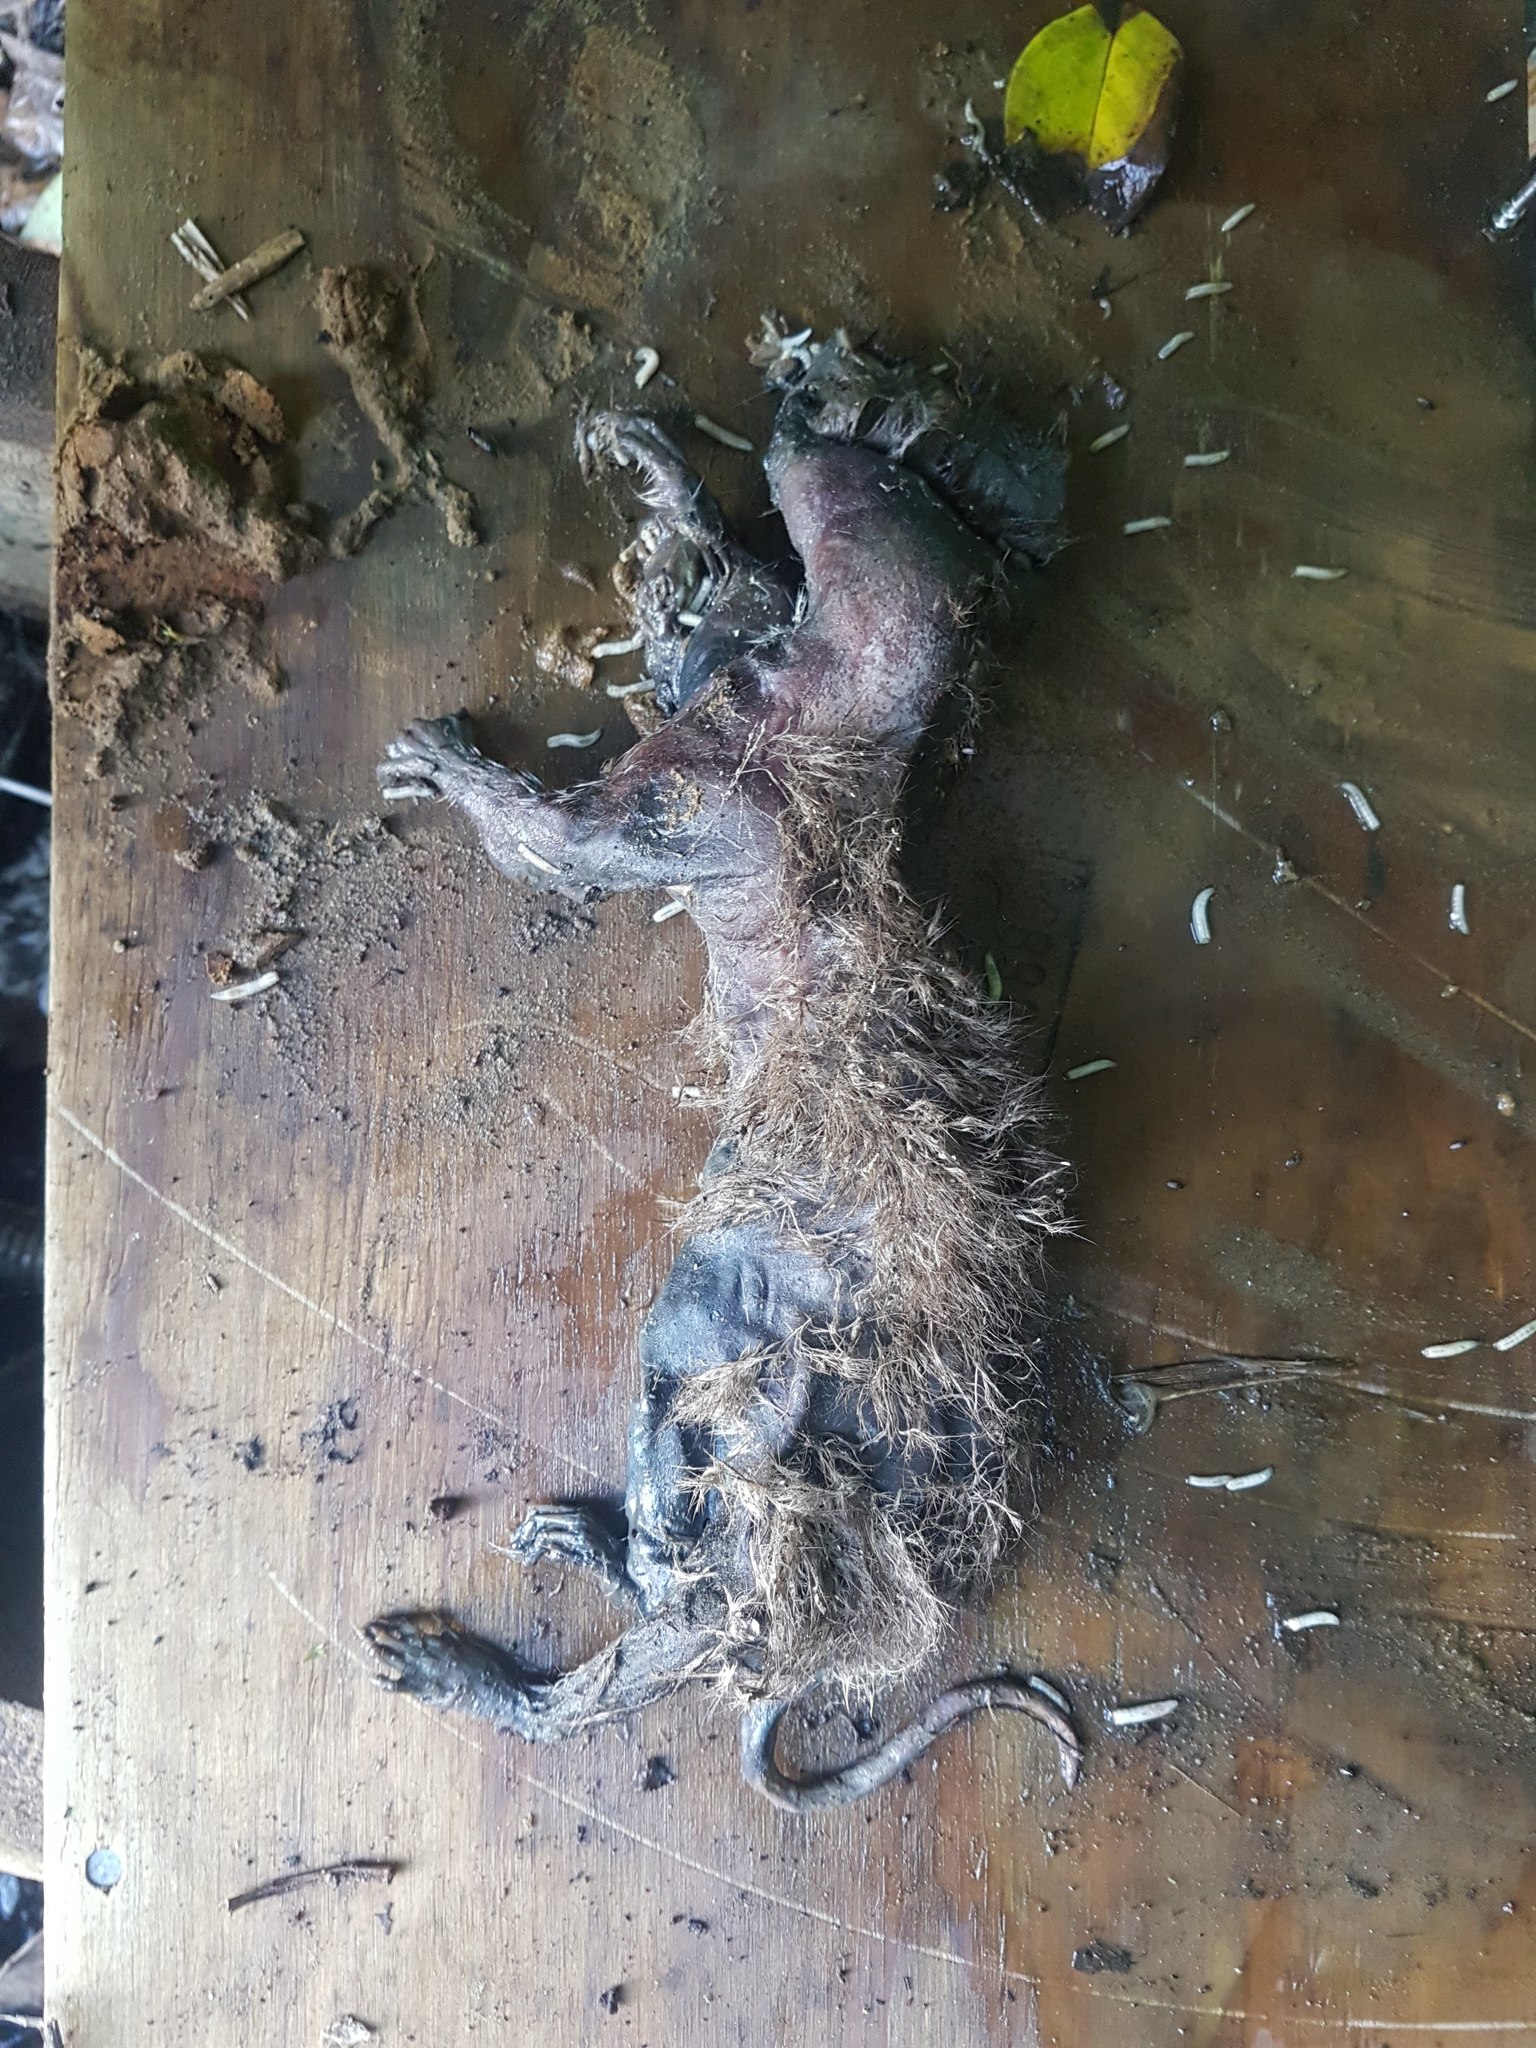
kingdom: Animalia
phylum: Chordata
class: Mammalia
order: Carnivora
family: Mustelidae
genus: Mustela
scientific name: Mustela erminea
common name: Stoat
